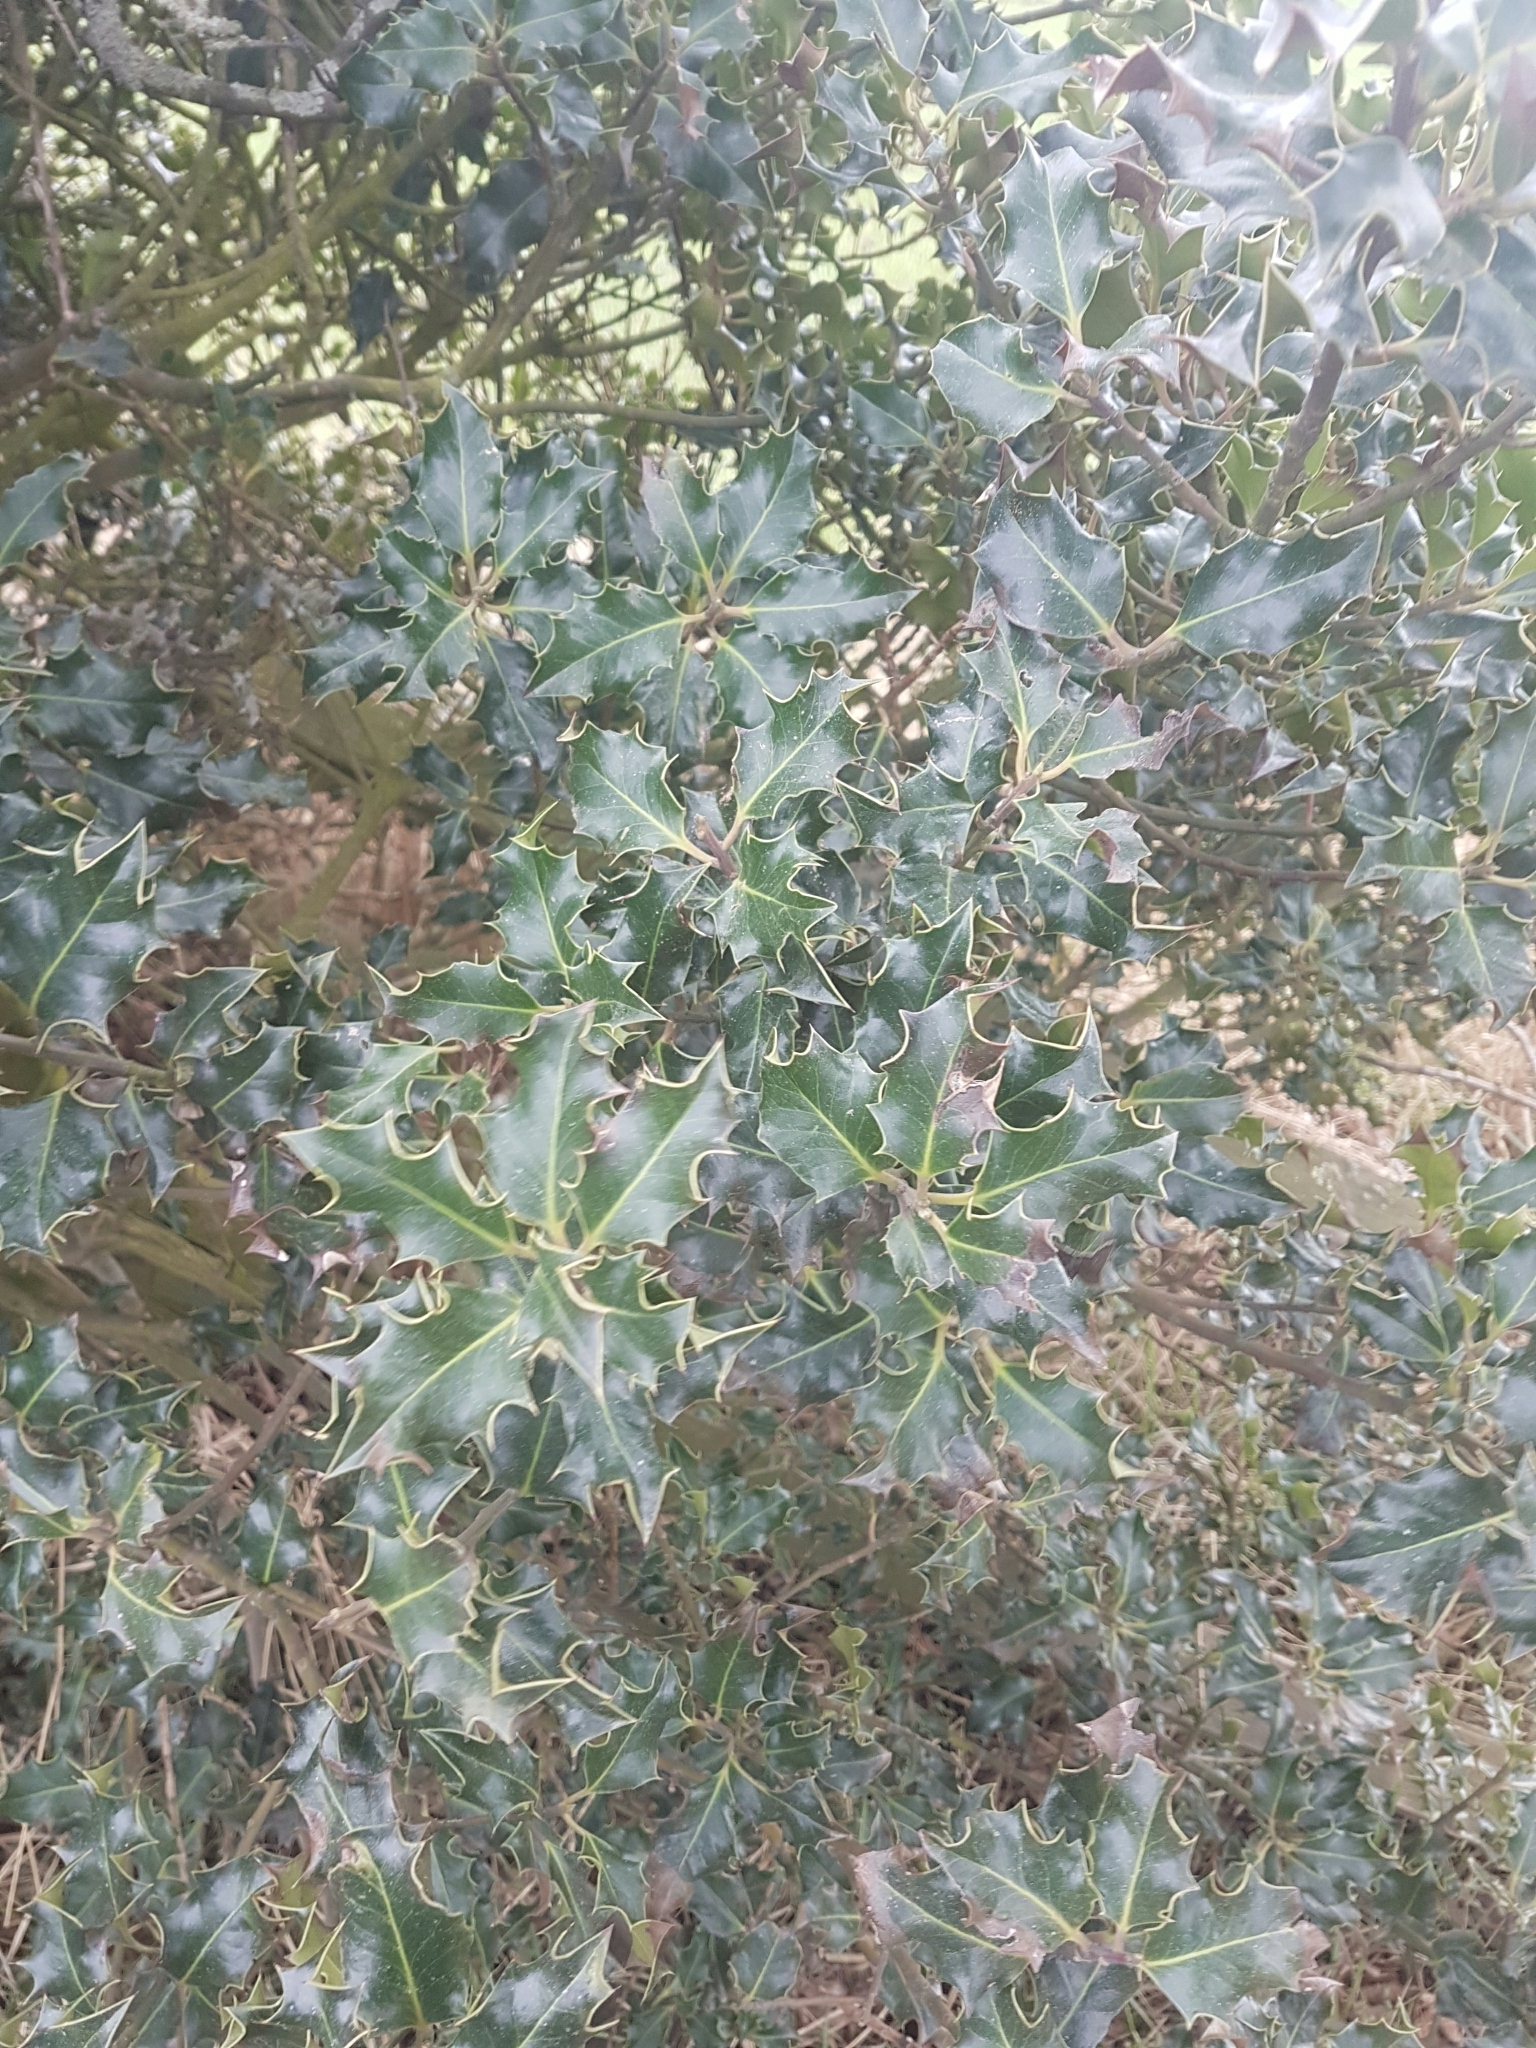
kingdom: Plantae
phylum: Tracheophyta
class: Magnoliopsida
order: Aquifoliales
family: Aquifoliaceae
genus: Ilex
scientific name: Ilex aquifolium
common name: English holly
